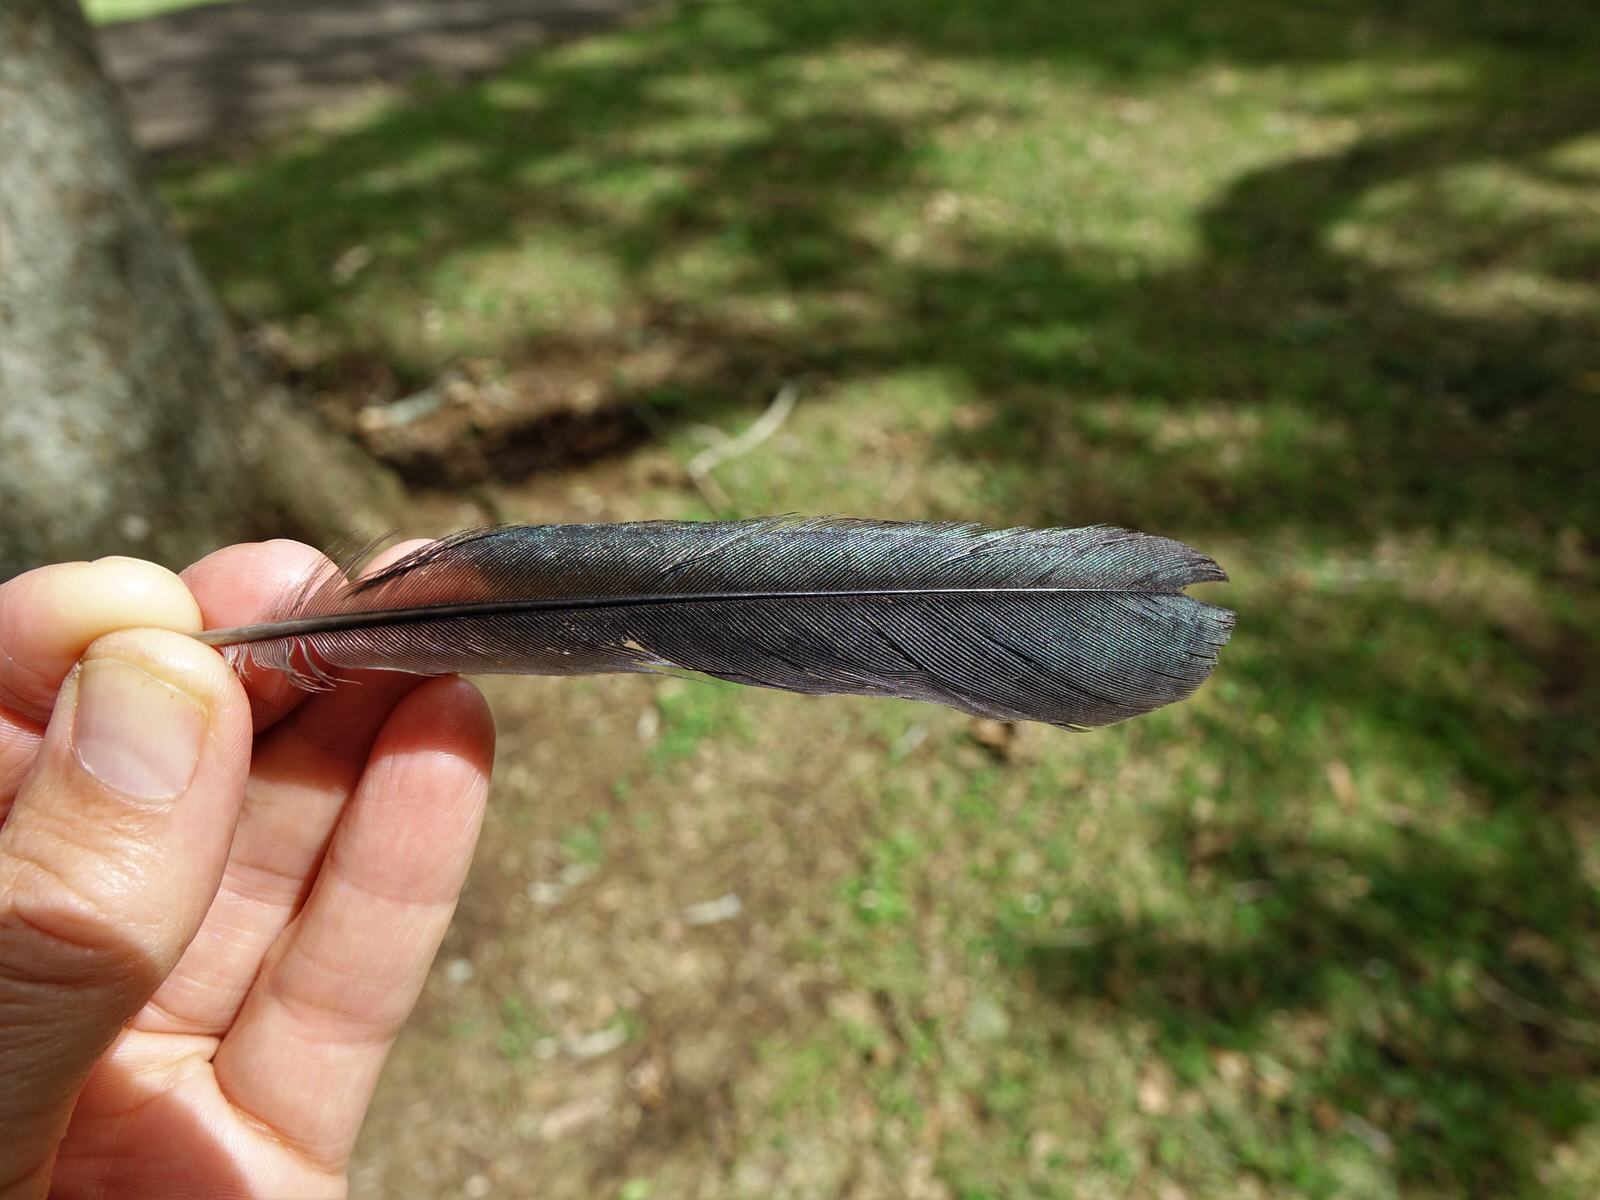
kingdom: Animalia
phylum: Chordata
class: Aves
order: Passeriformes
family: Meliphagidae
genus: Prosthemadera
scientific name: Prosthemadera novaeseelandiae
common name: Tui
